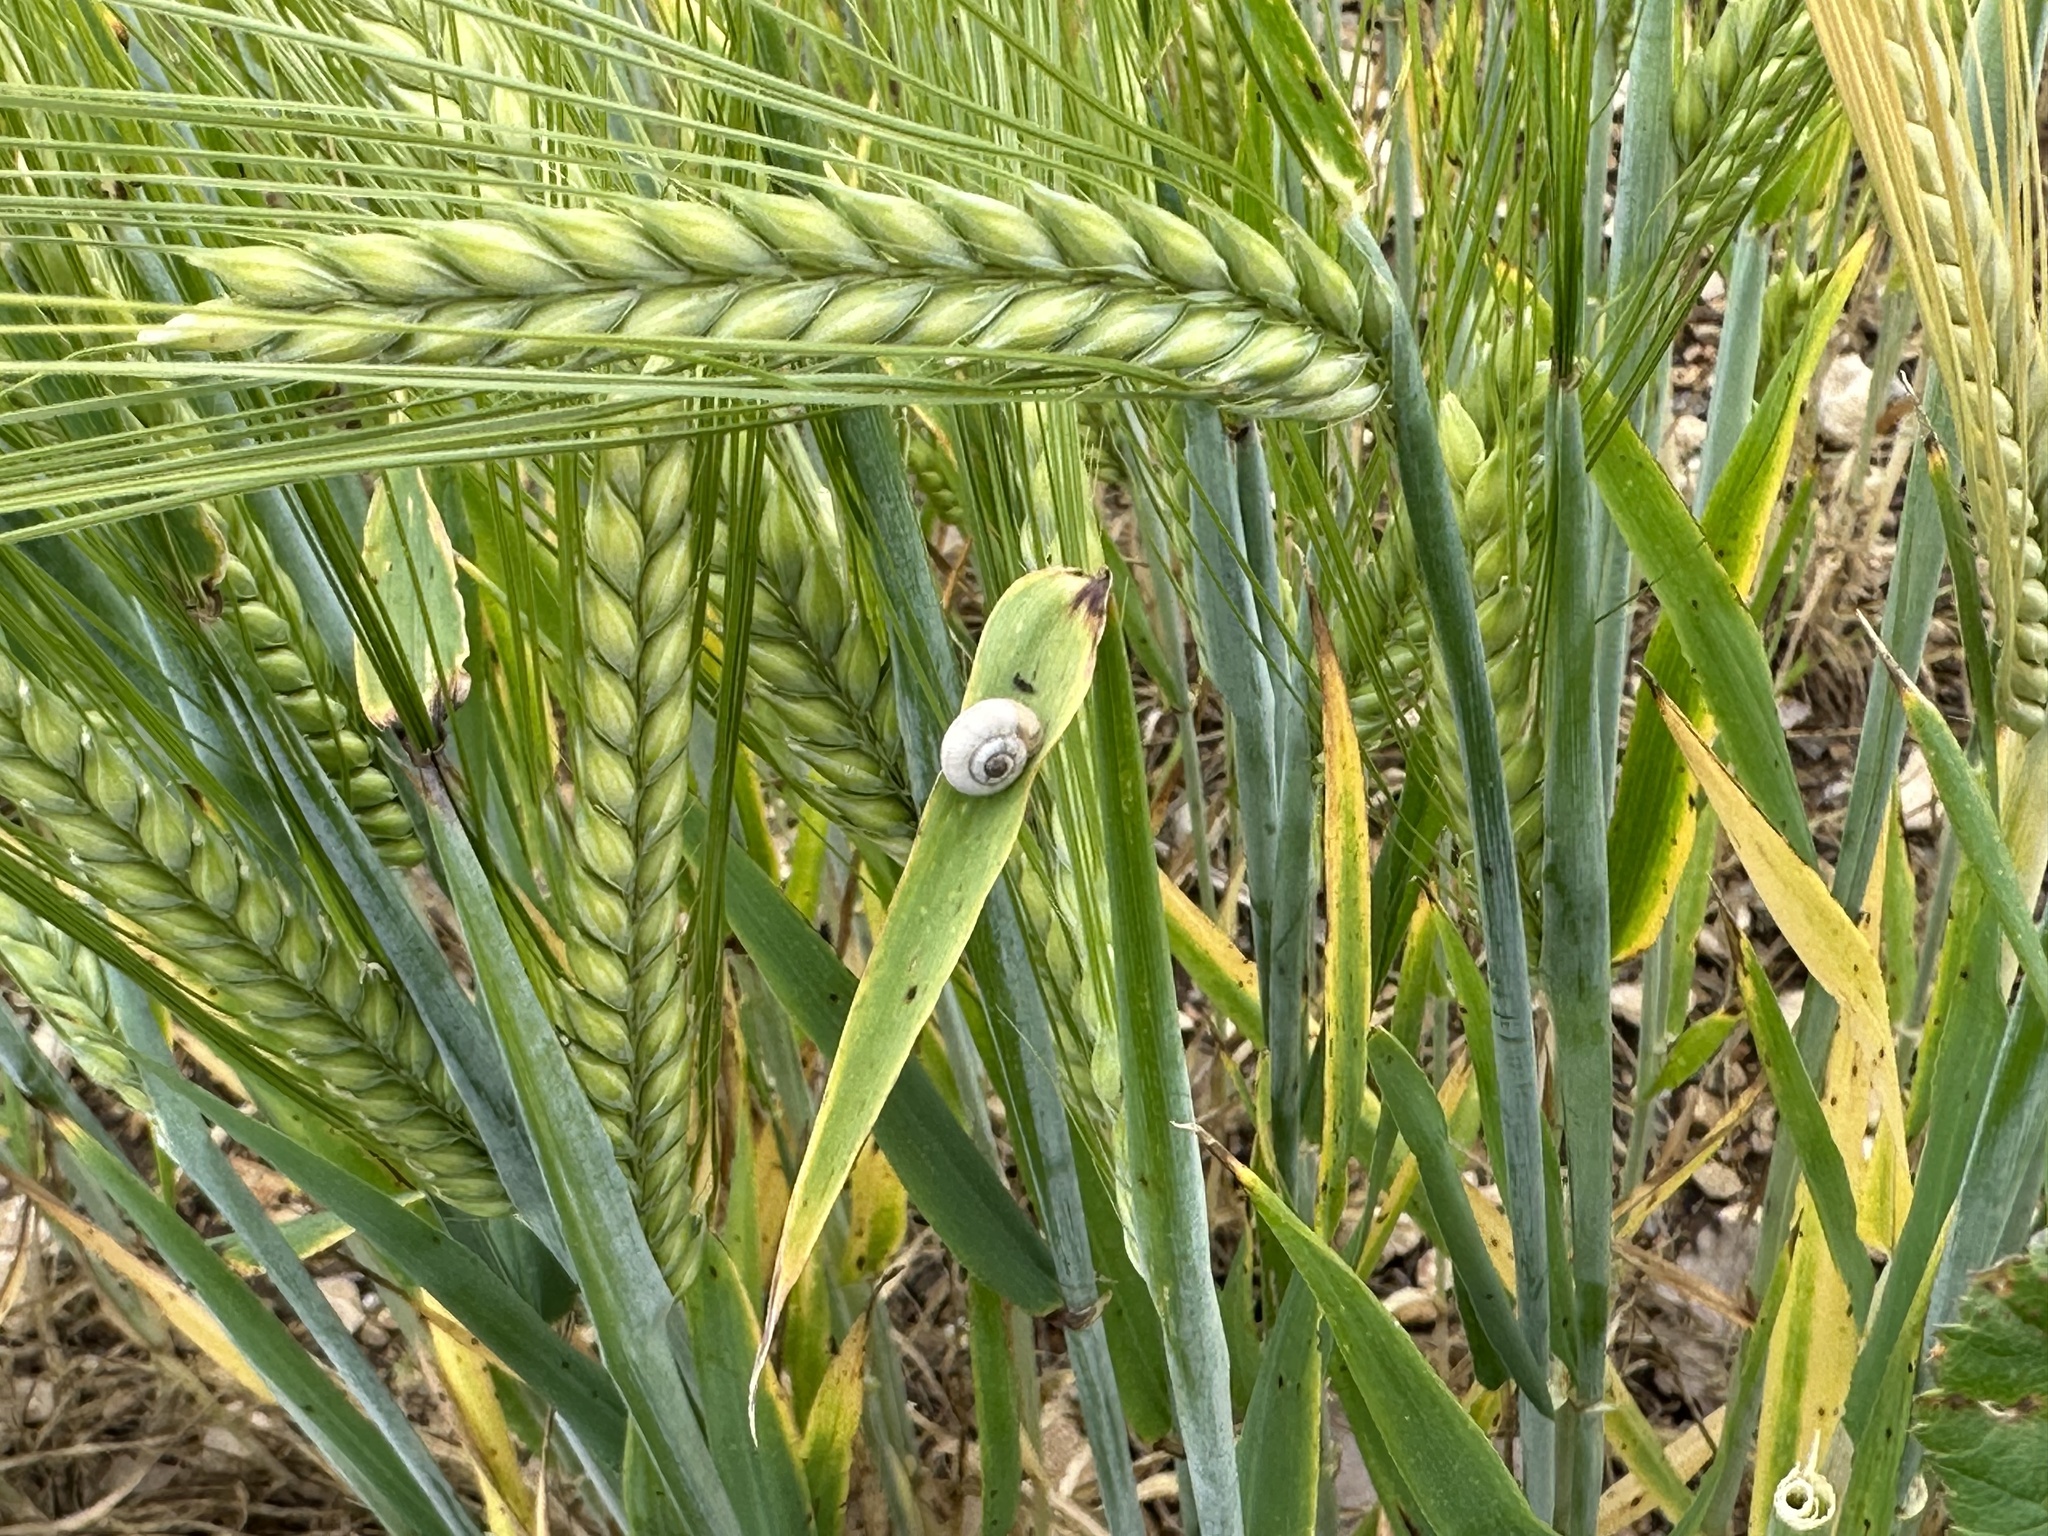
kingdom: Animalia
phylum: Mollusca
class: Gastropoda
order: Stylommatophora
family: Helicidae
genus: Theba
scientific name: Theba pisana
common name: White snail
